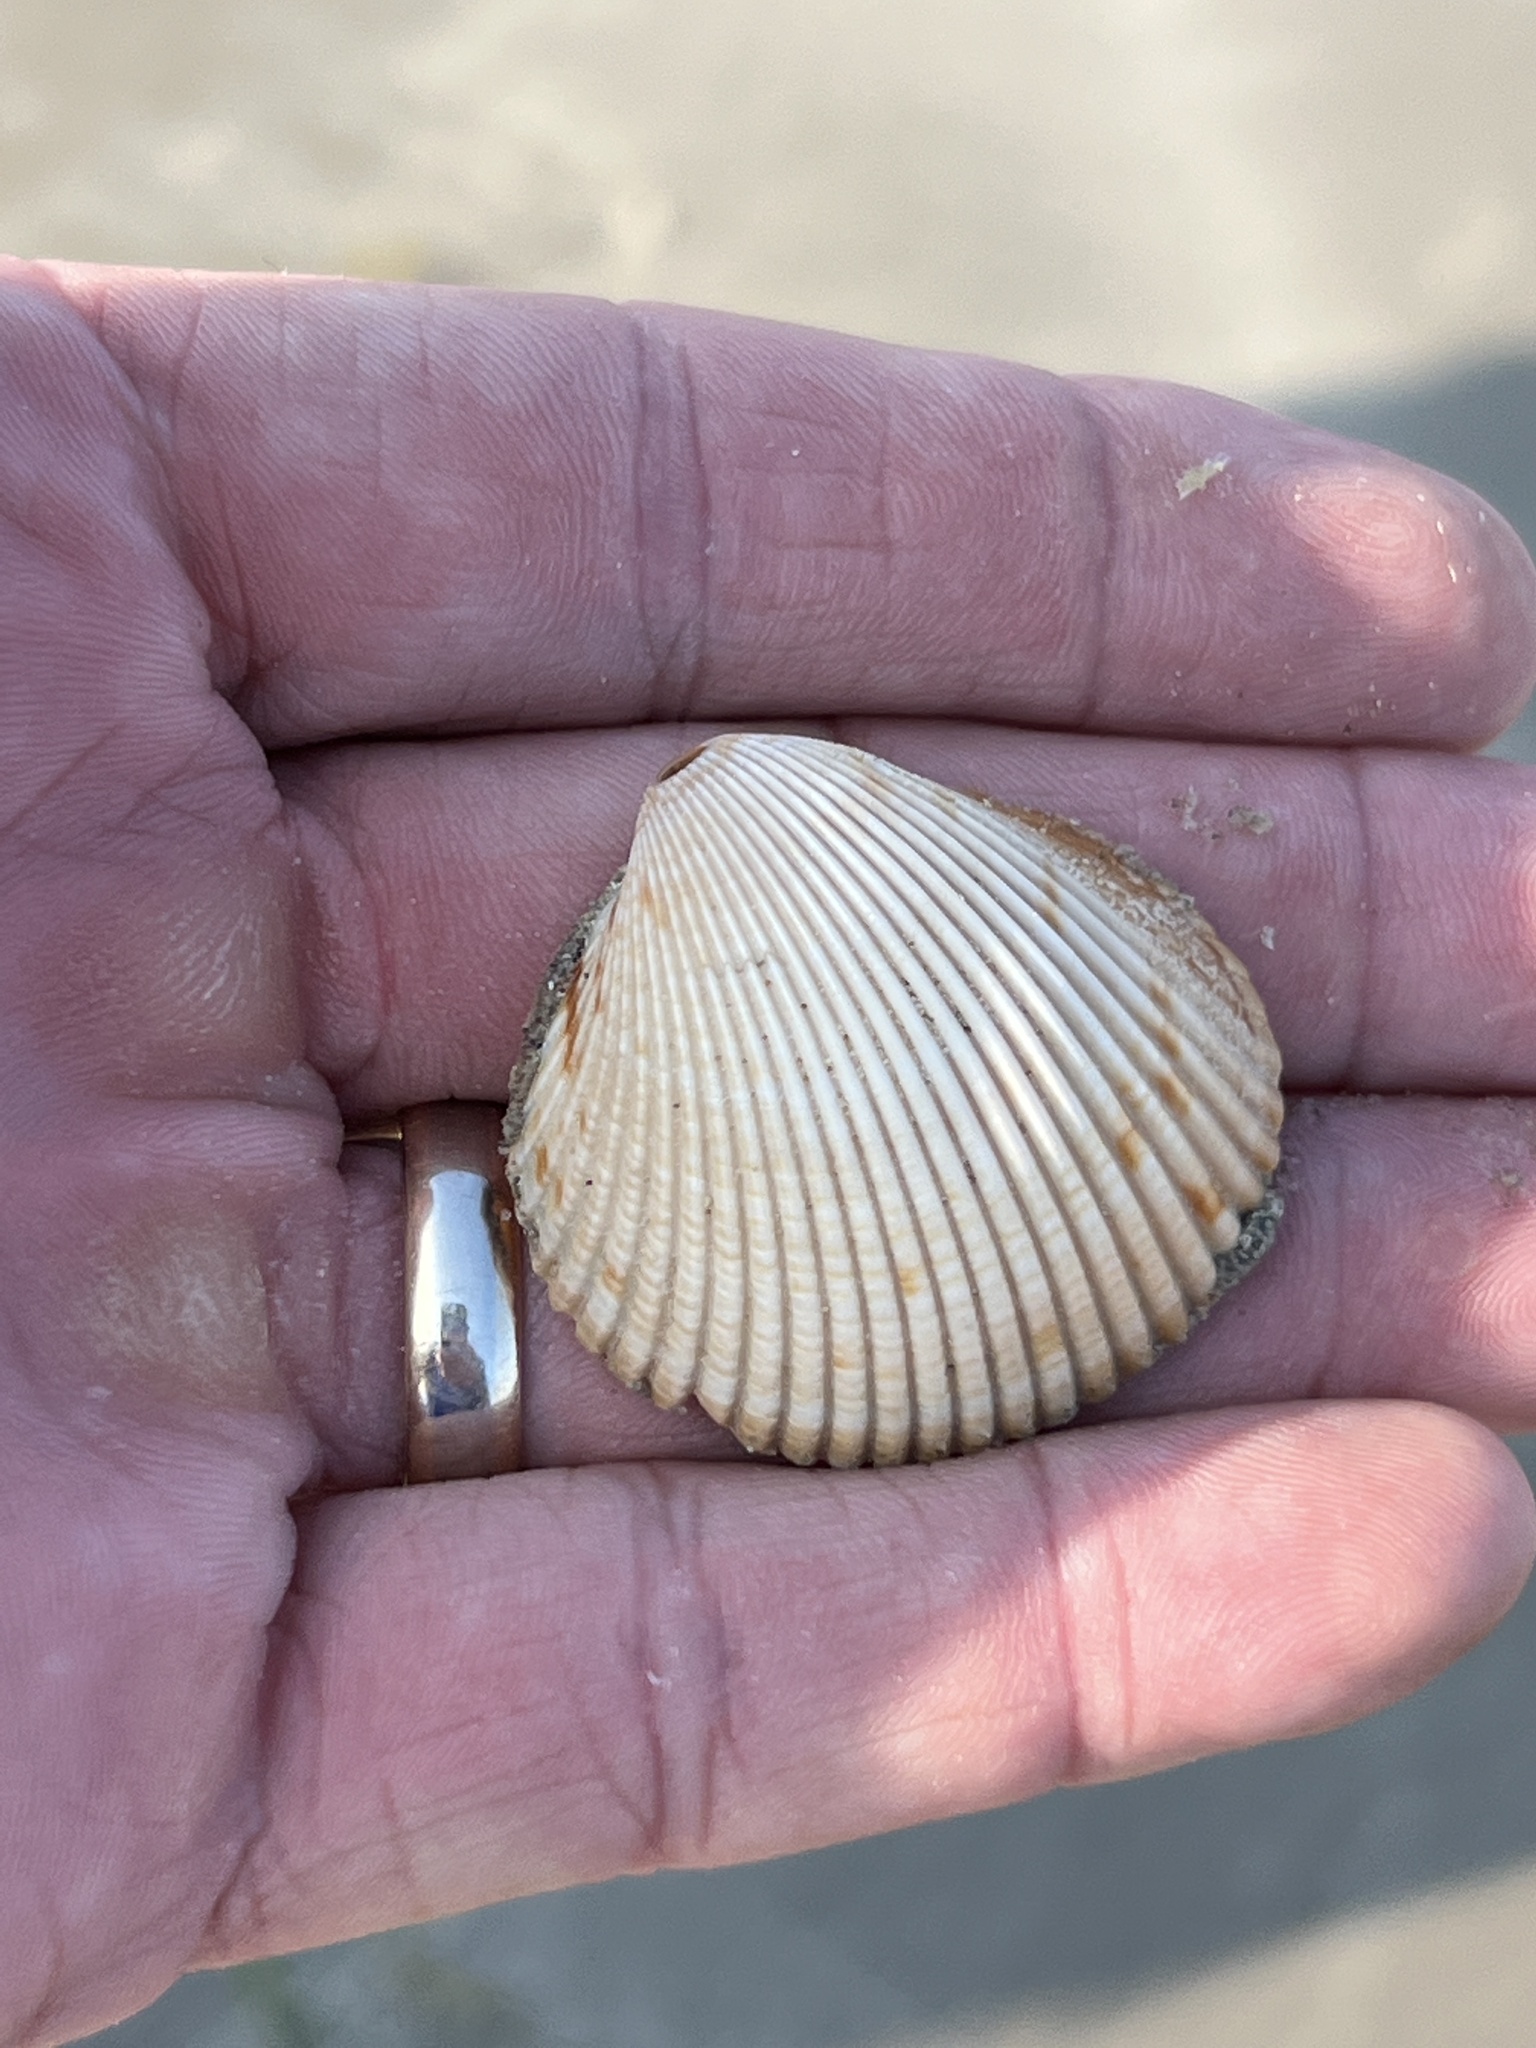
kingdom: Animalia
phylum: Mollusca
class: Bivalvia
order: Cardiida
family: Cardiidae
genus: Dinocardium
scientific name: Dinocardium robustum
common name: Atlantic giant cockle
